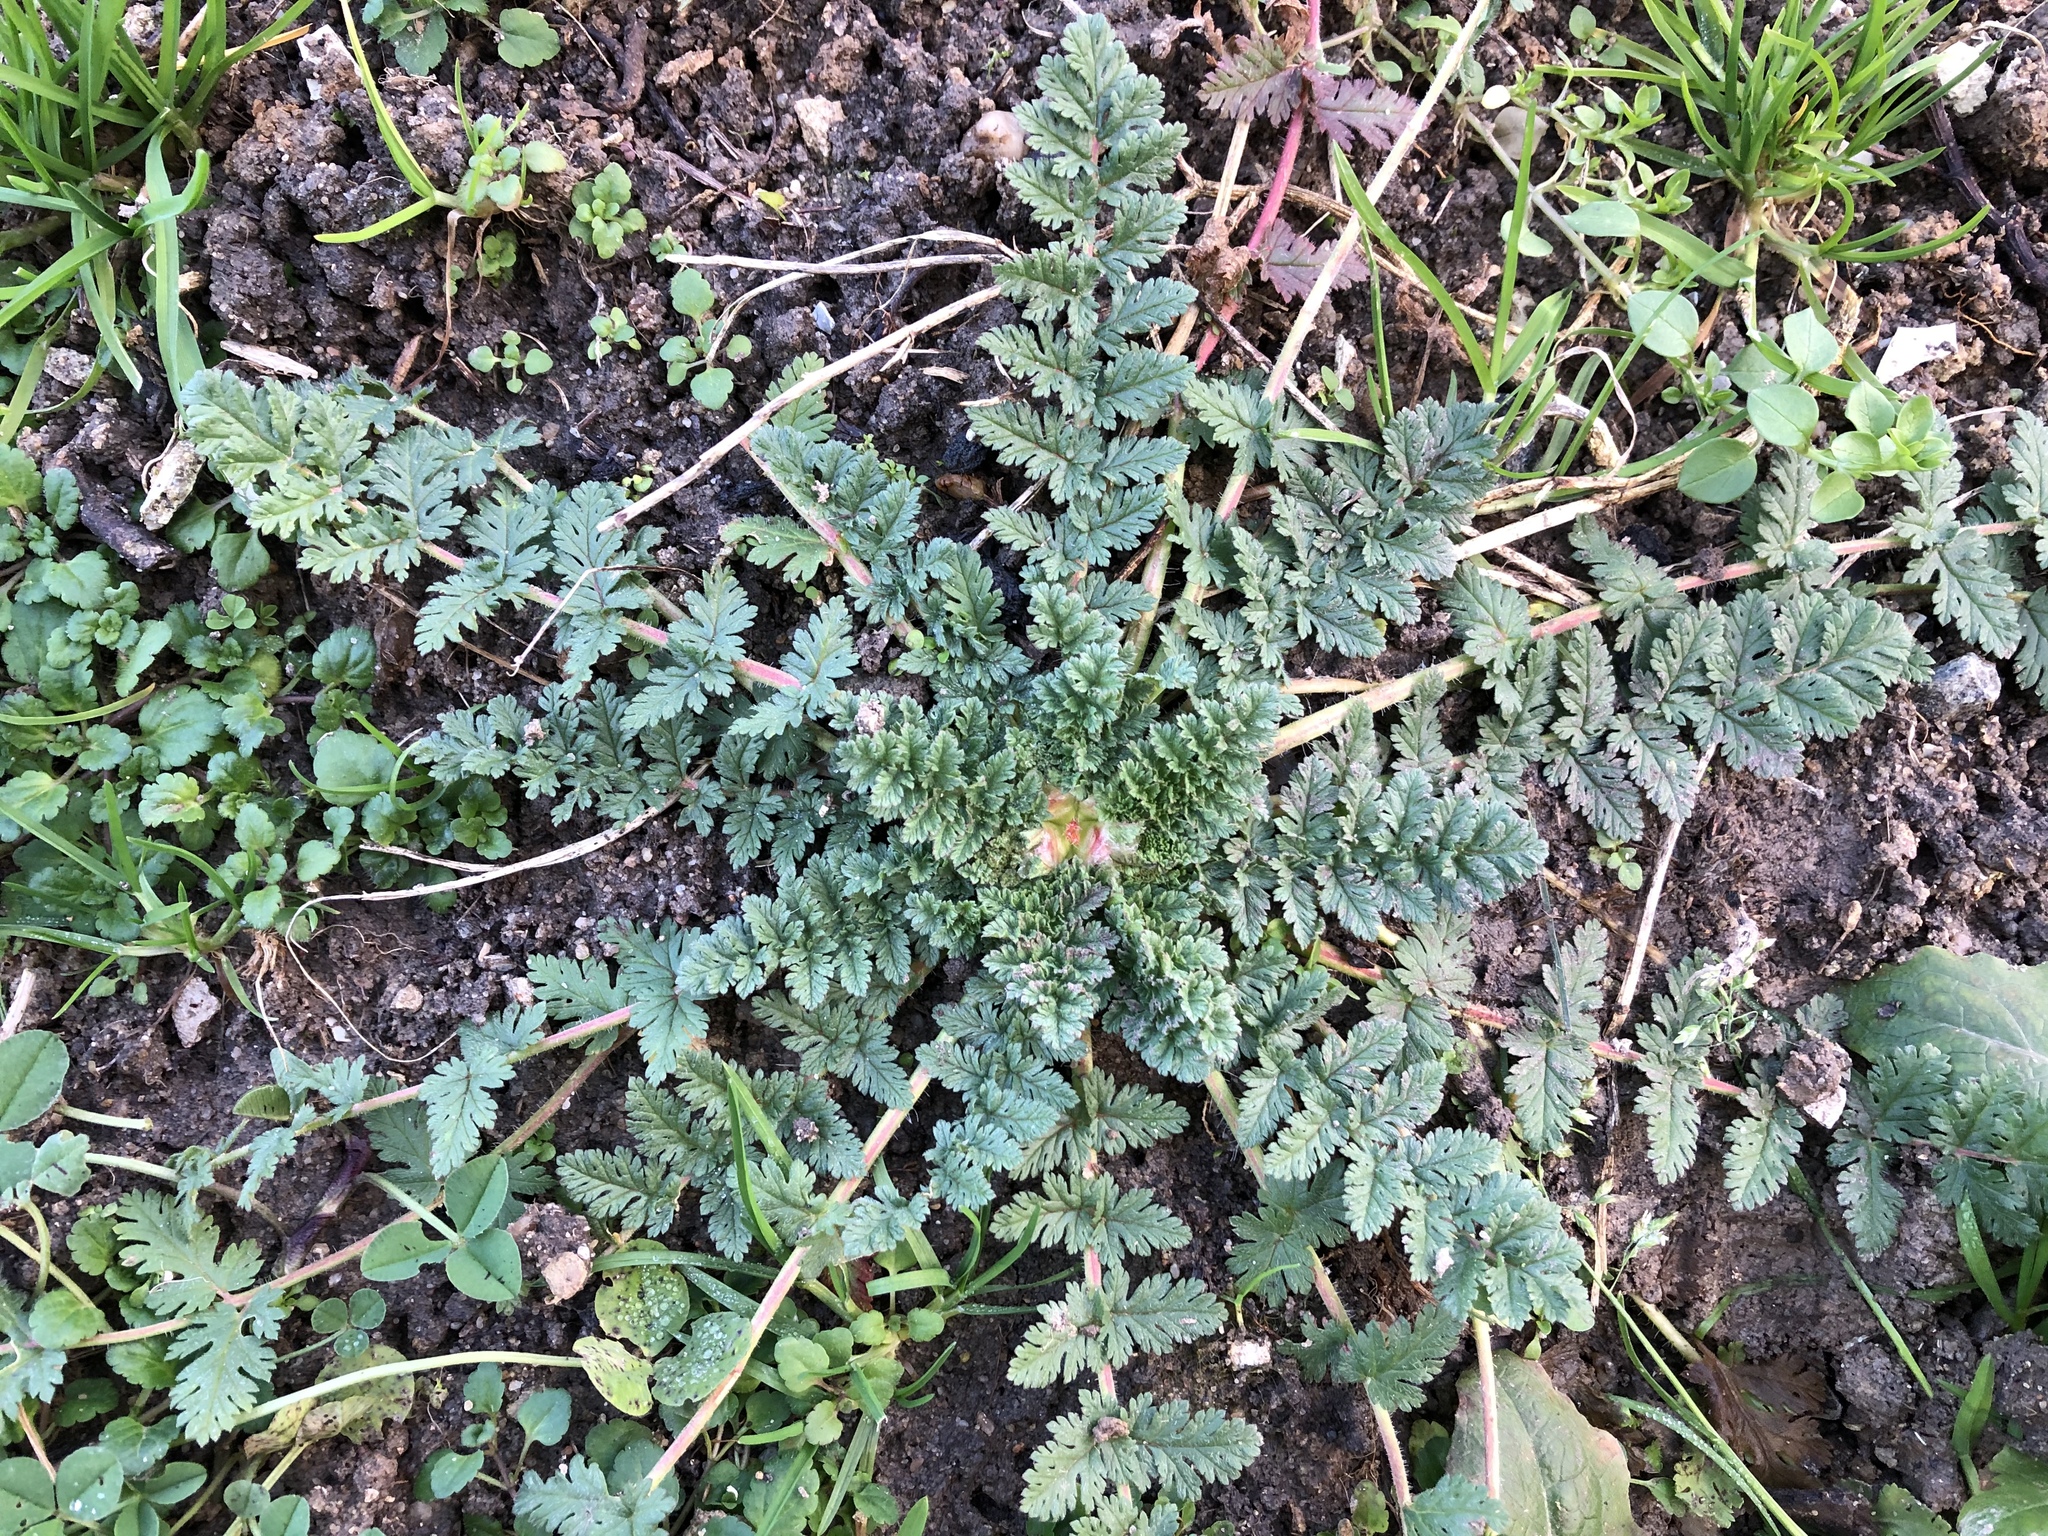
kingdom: Plantae
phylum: Tracheophyta
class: Magnoliopsida
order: Geraniales
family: Geraniaceae
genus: Erodium
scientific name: Erodium cicutarium
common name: Common stork's-bill
